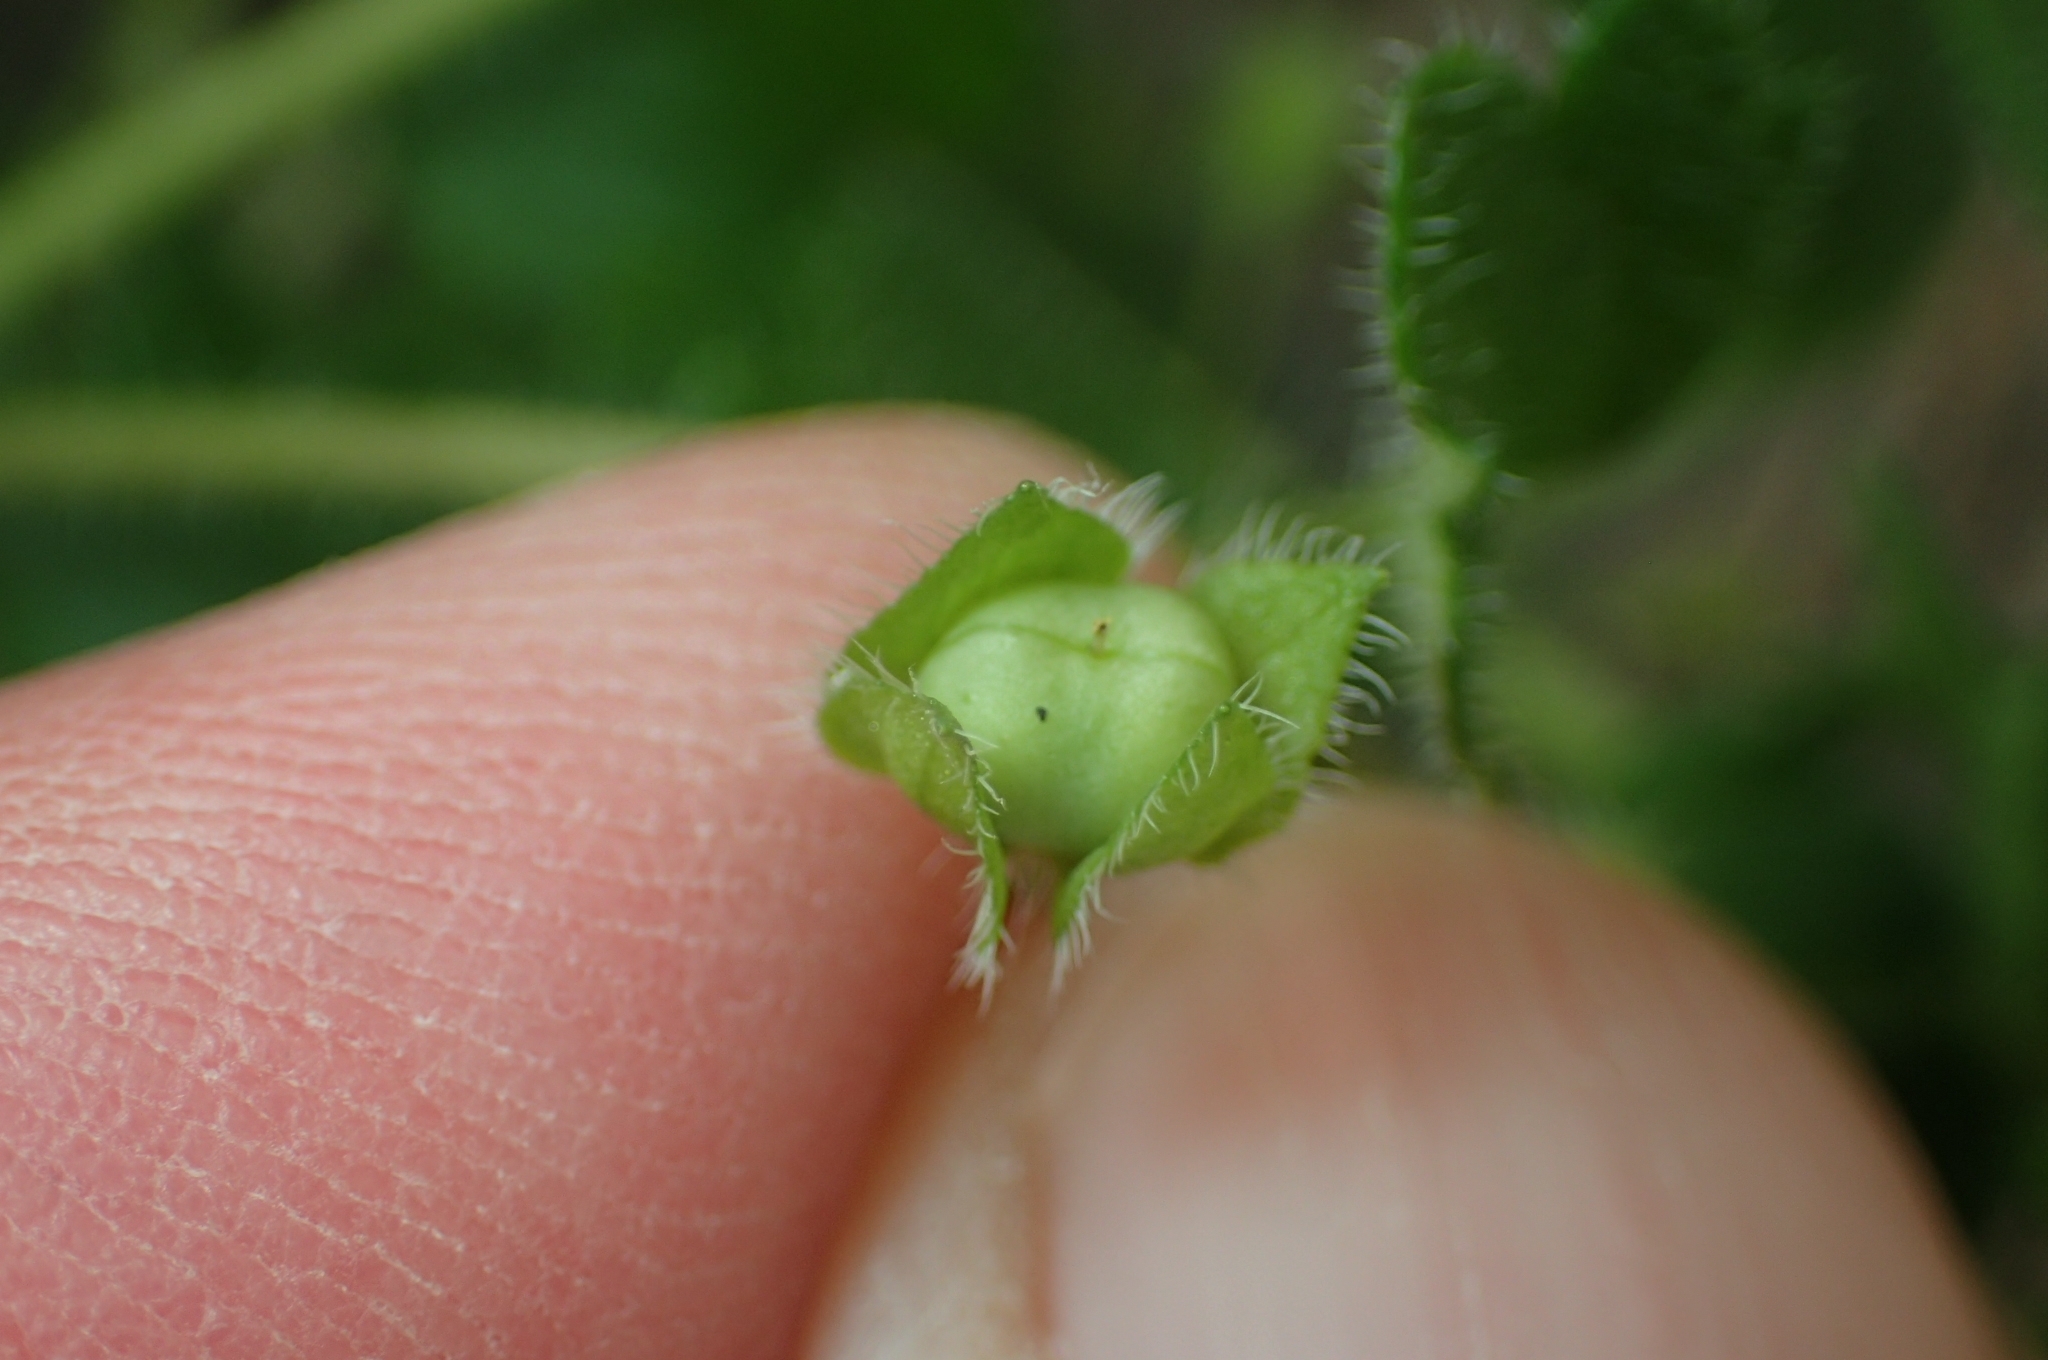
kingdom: Plantae
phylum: Tracheophyta
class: Magnoliopsida
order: Lamiales
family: Plantaginaceae
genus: Veronica
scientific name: Veronica hederifolia
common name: Ivy-leaved speedwell
